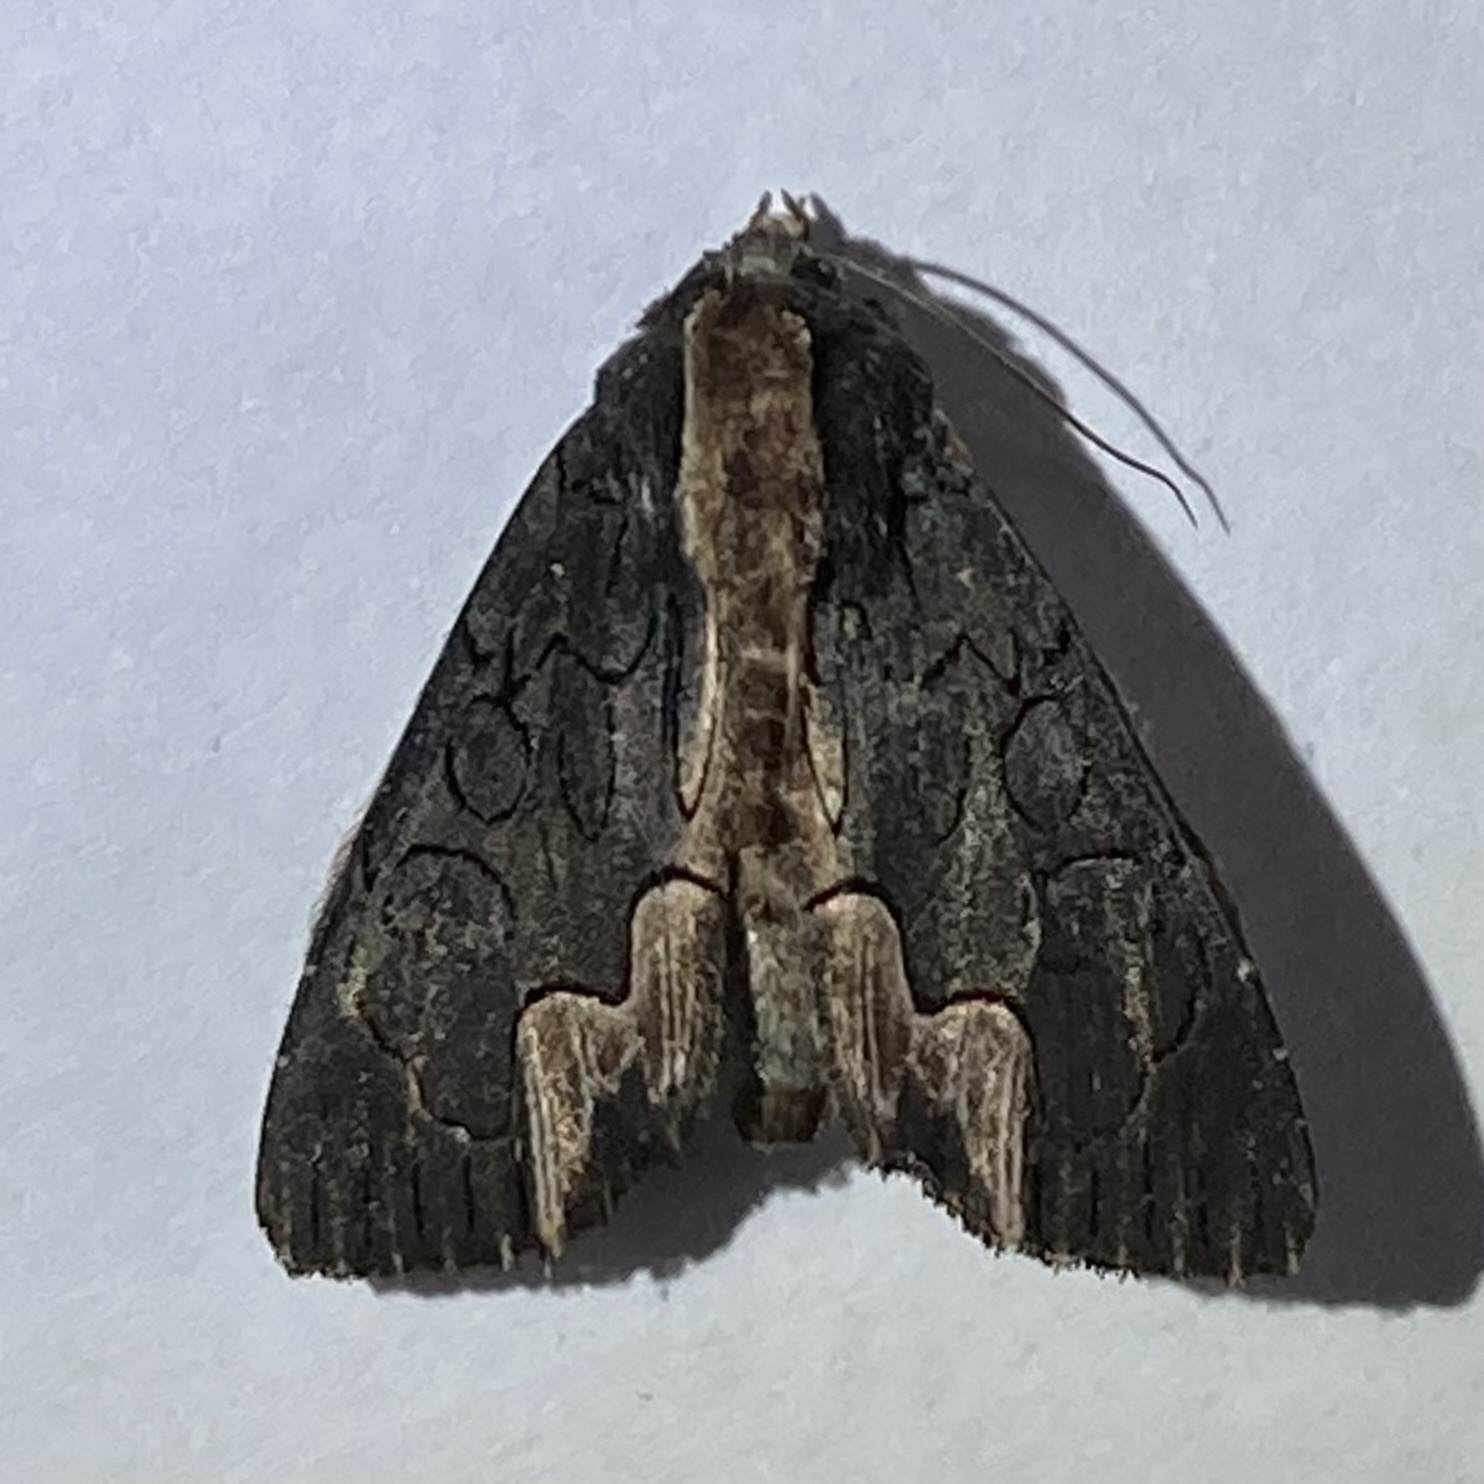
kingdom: Animalia
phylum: Arthropoda
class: Insecta
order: Lepidoptera
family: Noctuidae
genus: Dypterygia
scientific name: Dypterygia rozmani
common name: American bird's-wing
